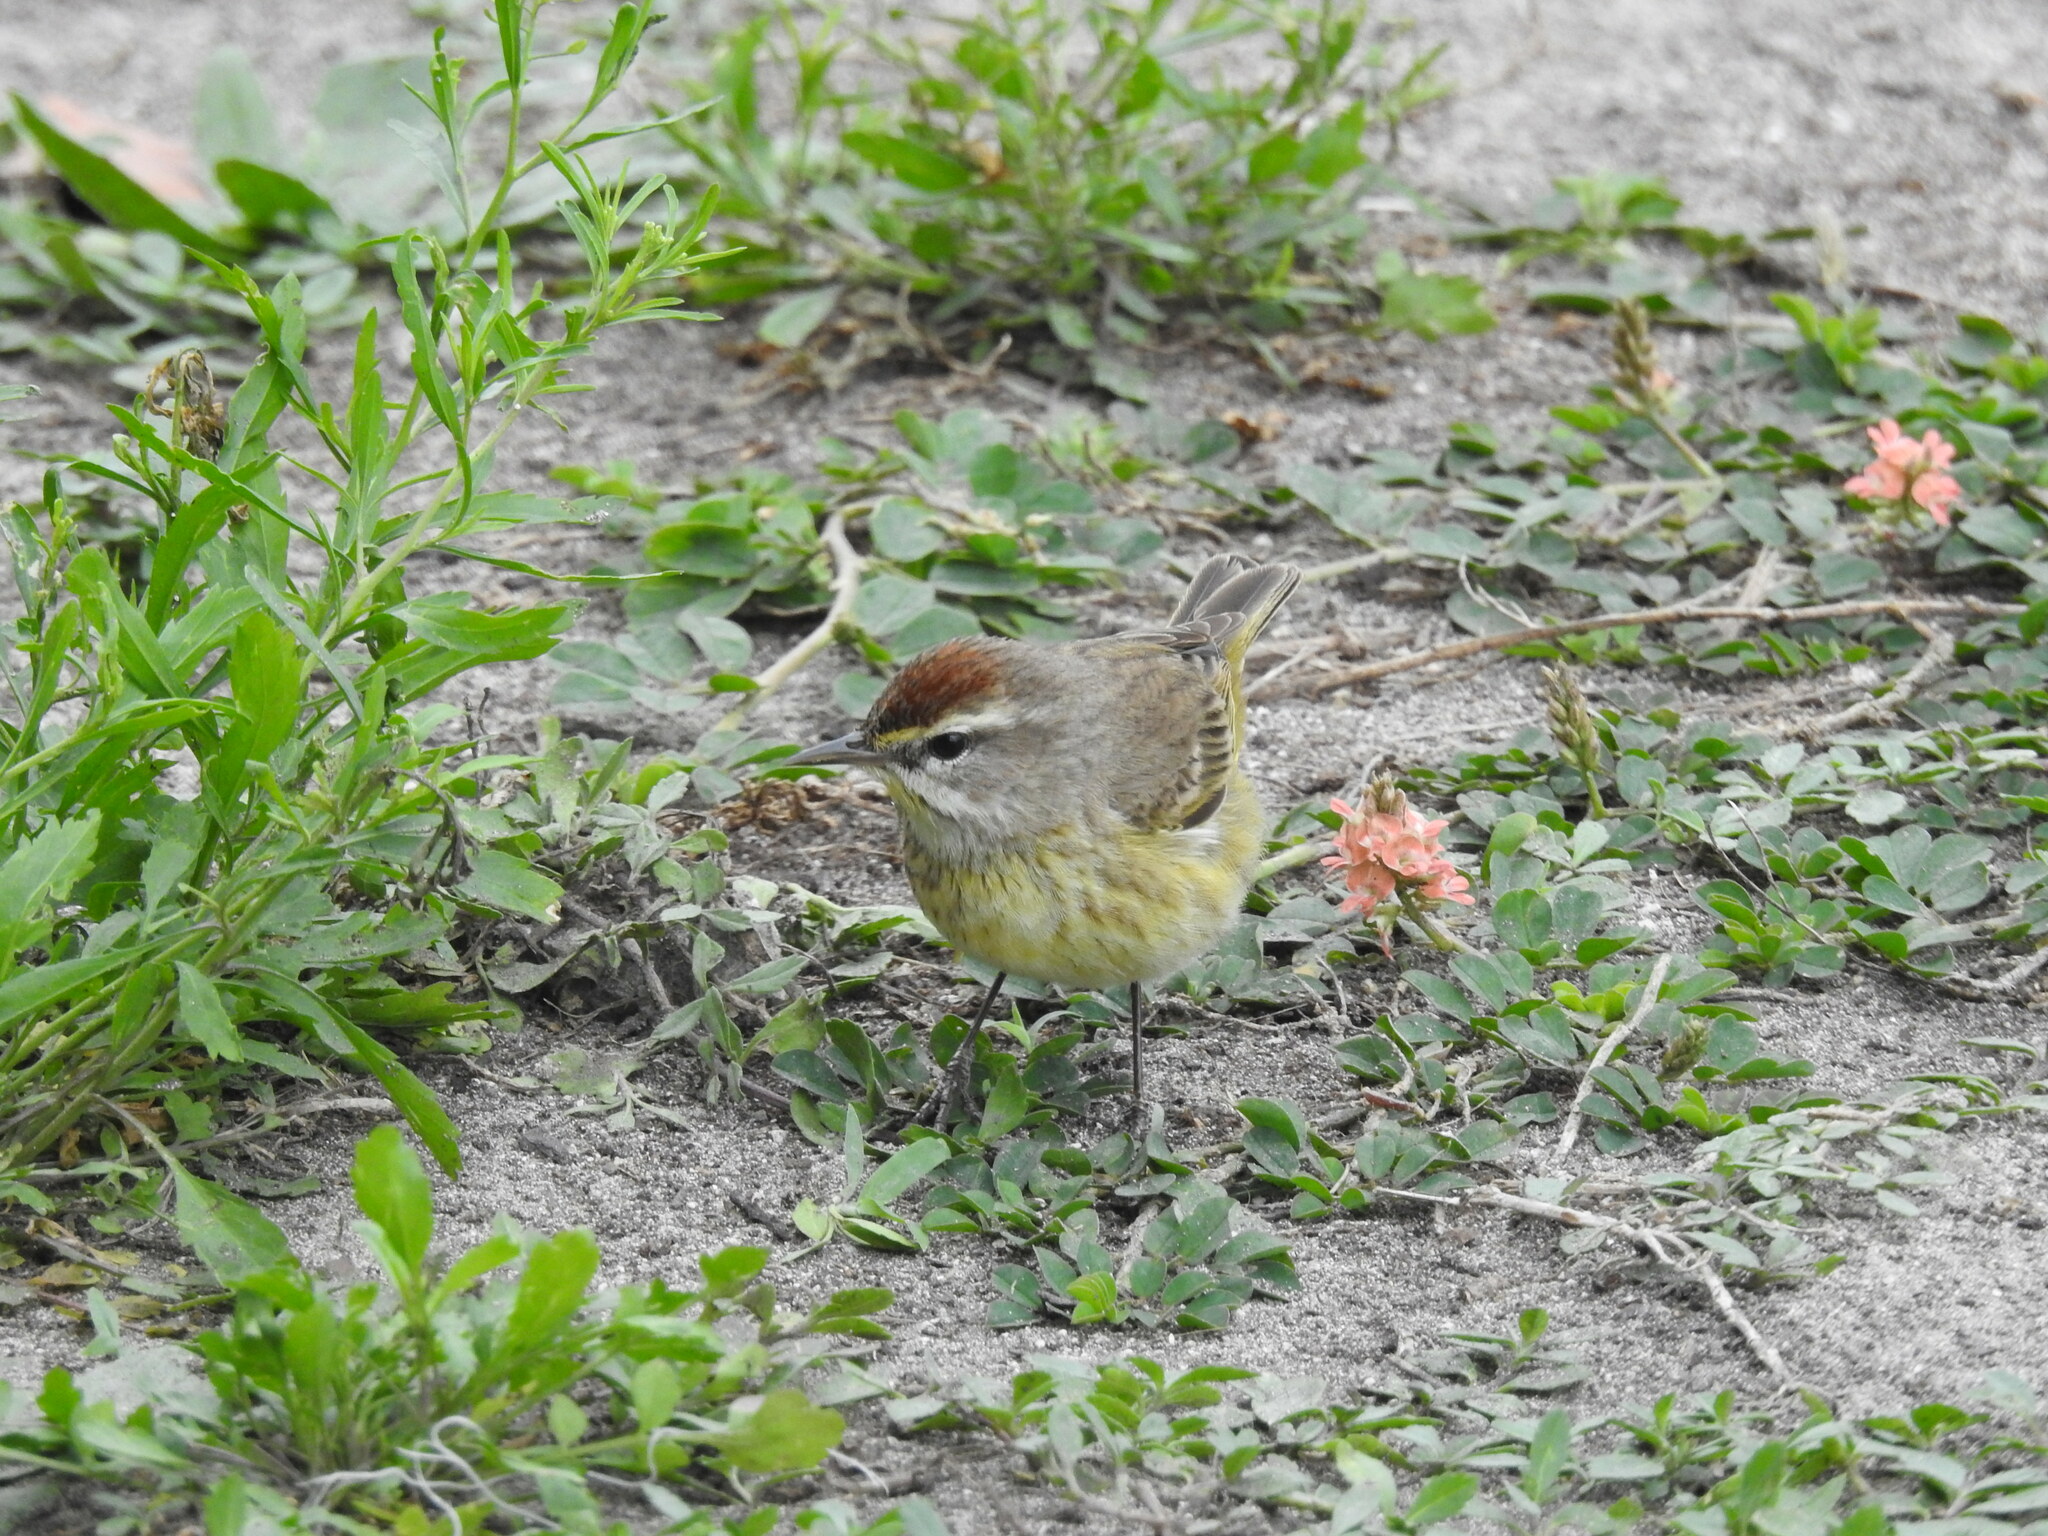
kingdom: Animalia
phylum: Chordata
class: Aves
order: Passeriformes
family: Parulidae
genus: Setophaga
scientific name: Setophaga palmarum
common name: Palm warbler
